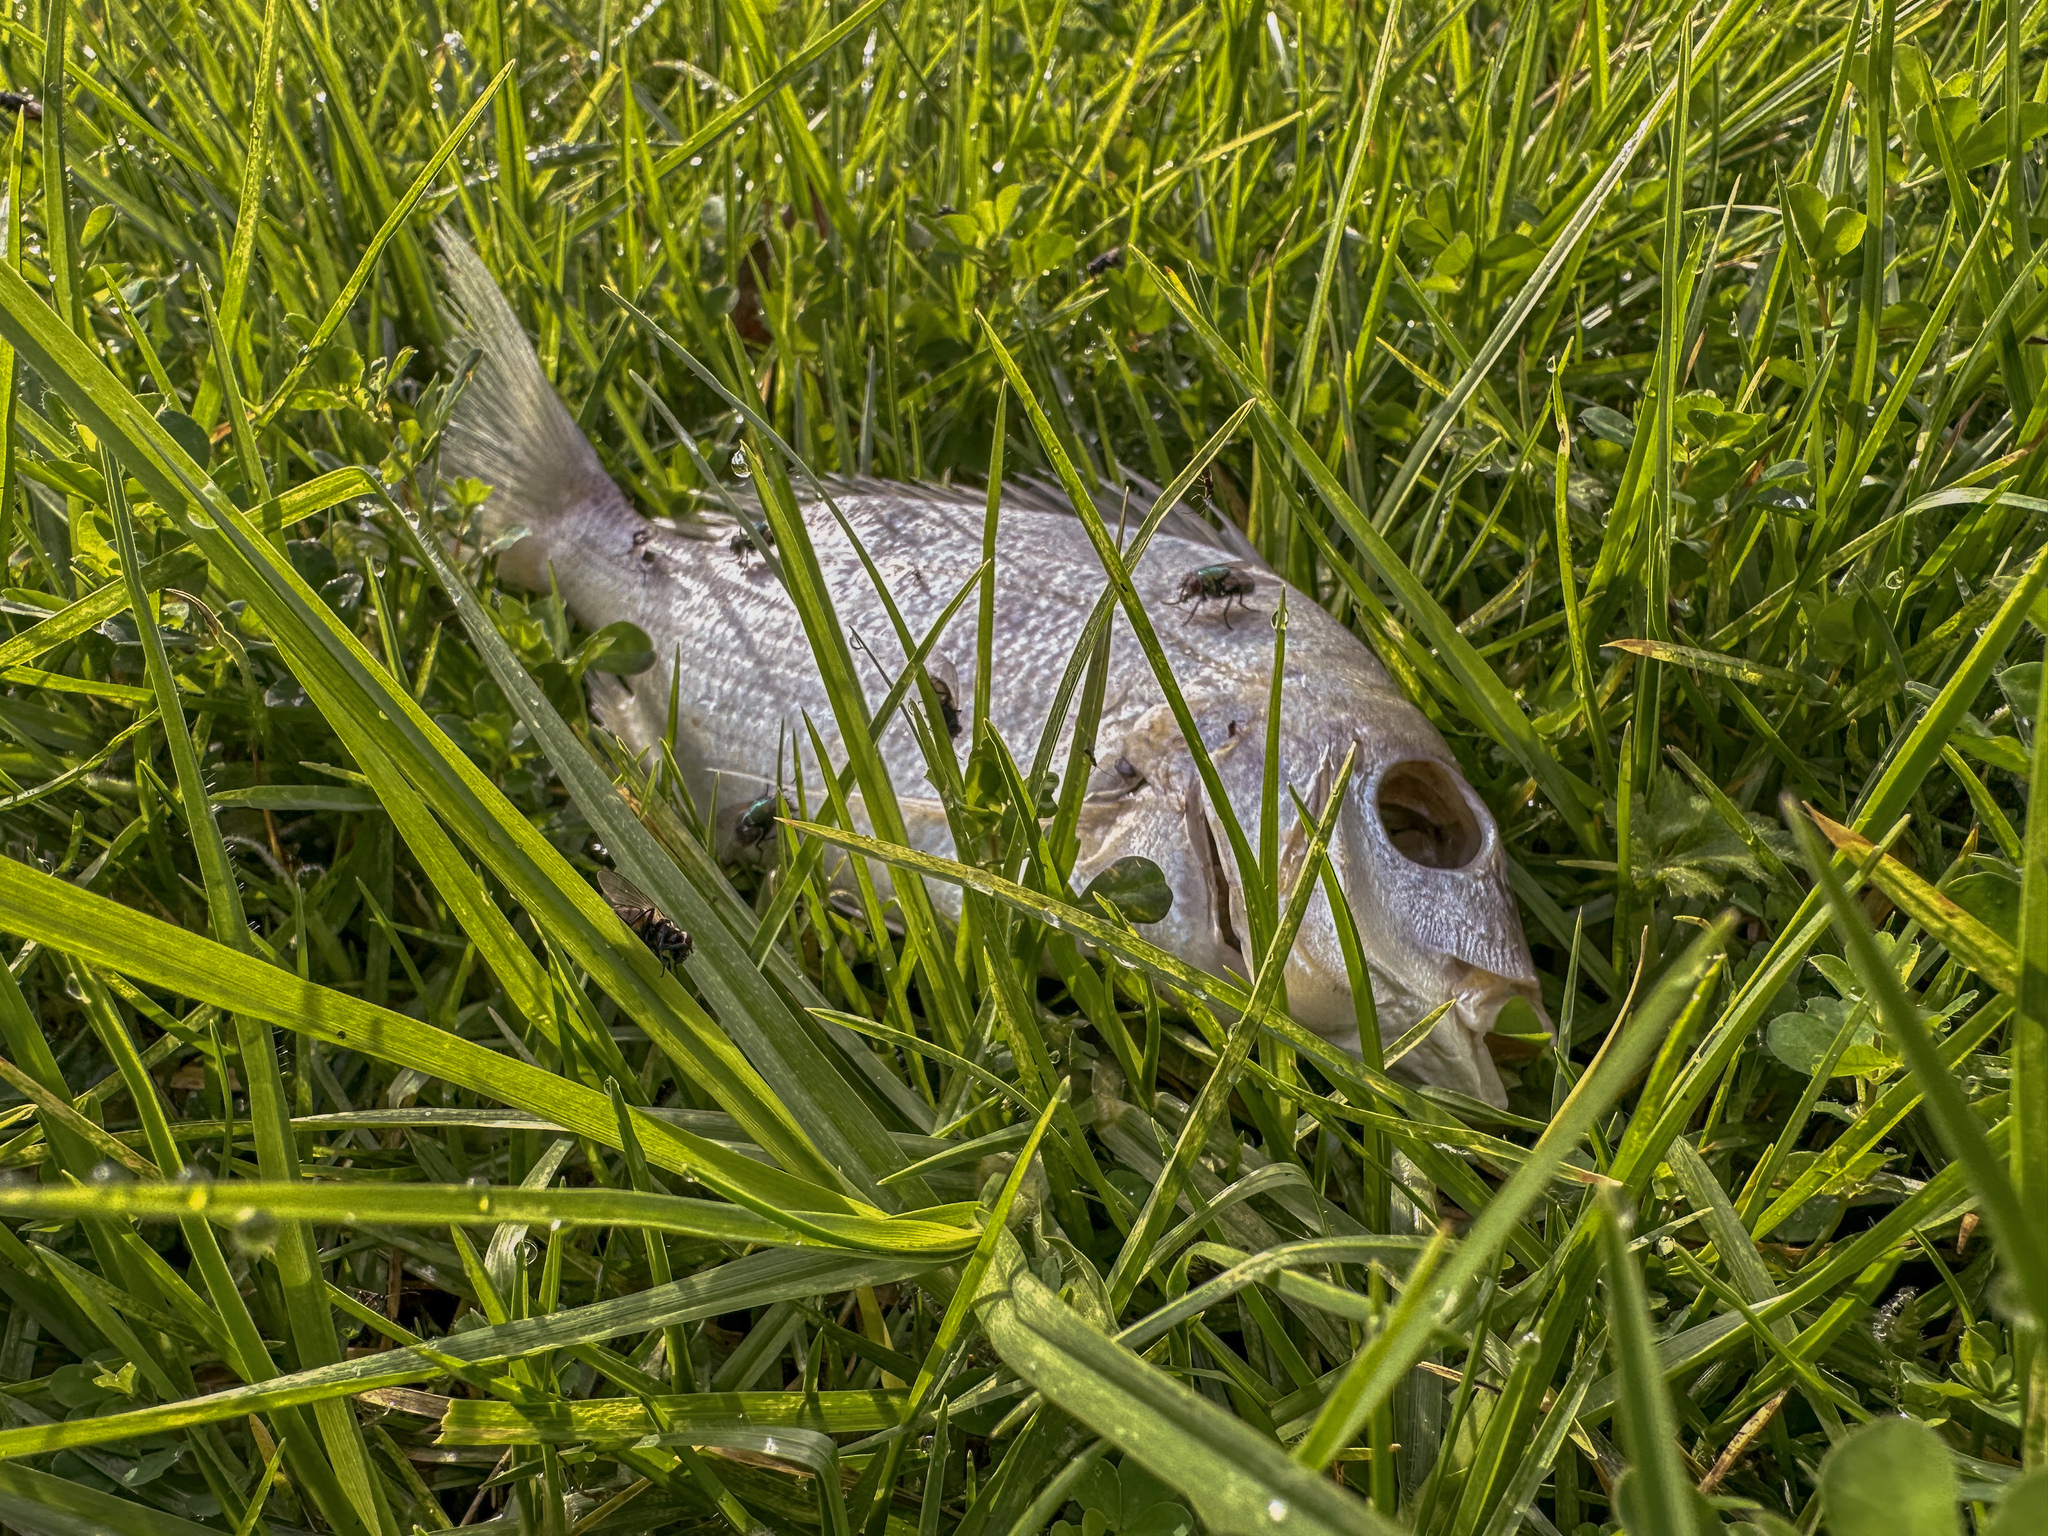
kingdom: Animalia
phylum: Chordata
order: Perciformes
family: Sparidae
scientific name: Sparidae
